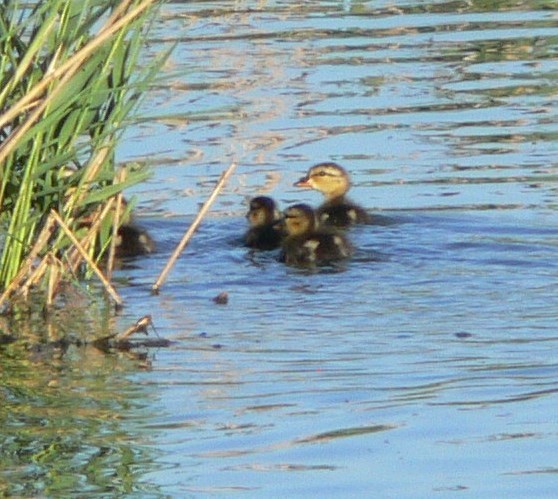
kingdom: Animalia
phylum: Chordata
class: Aves
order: Anseriformes
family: Anatidae
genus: Anas
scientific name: Anas platyrhynchos
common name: Mallard
